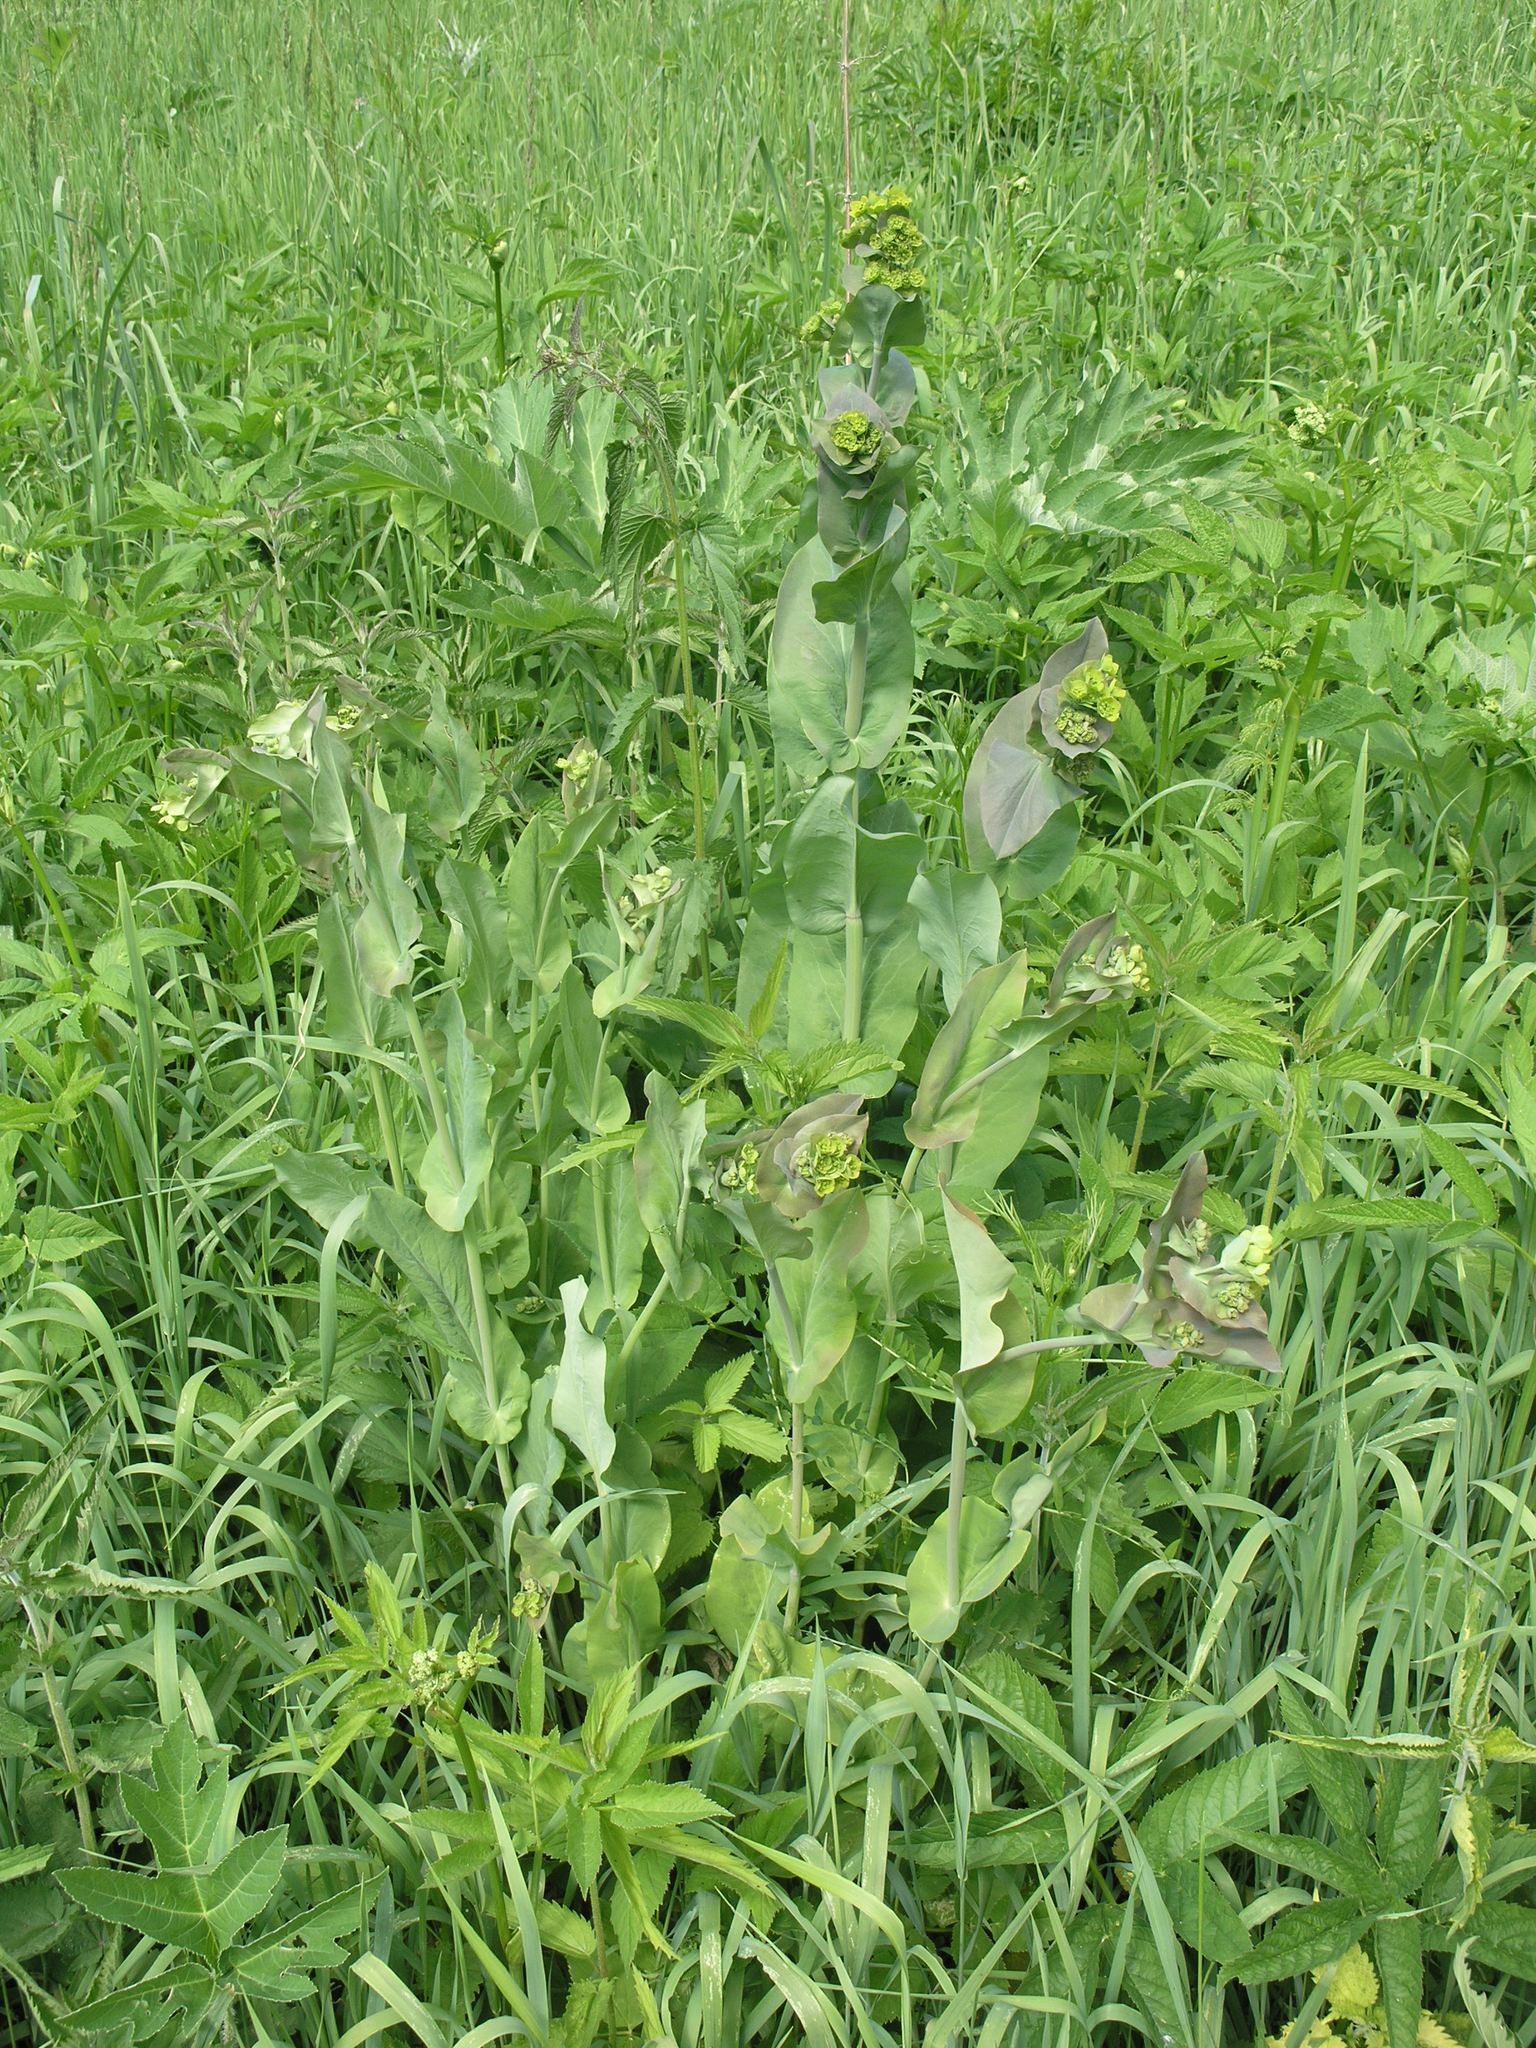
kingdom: Plantae
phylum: Tracheophyta
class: Magnoliopsida
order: Apiales
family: Apiaceae
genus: Bupleurum
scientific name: Bupleurum aureum
